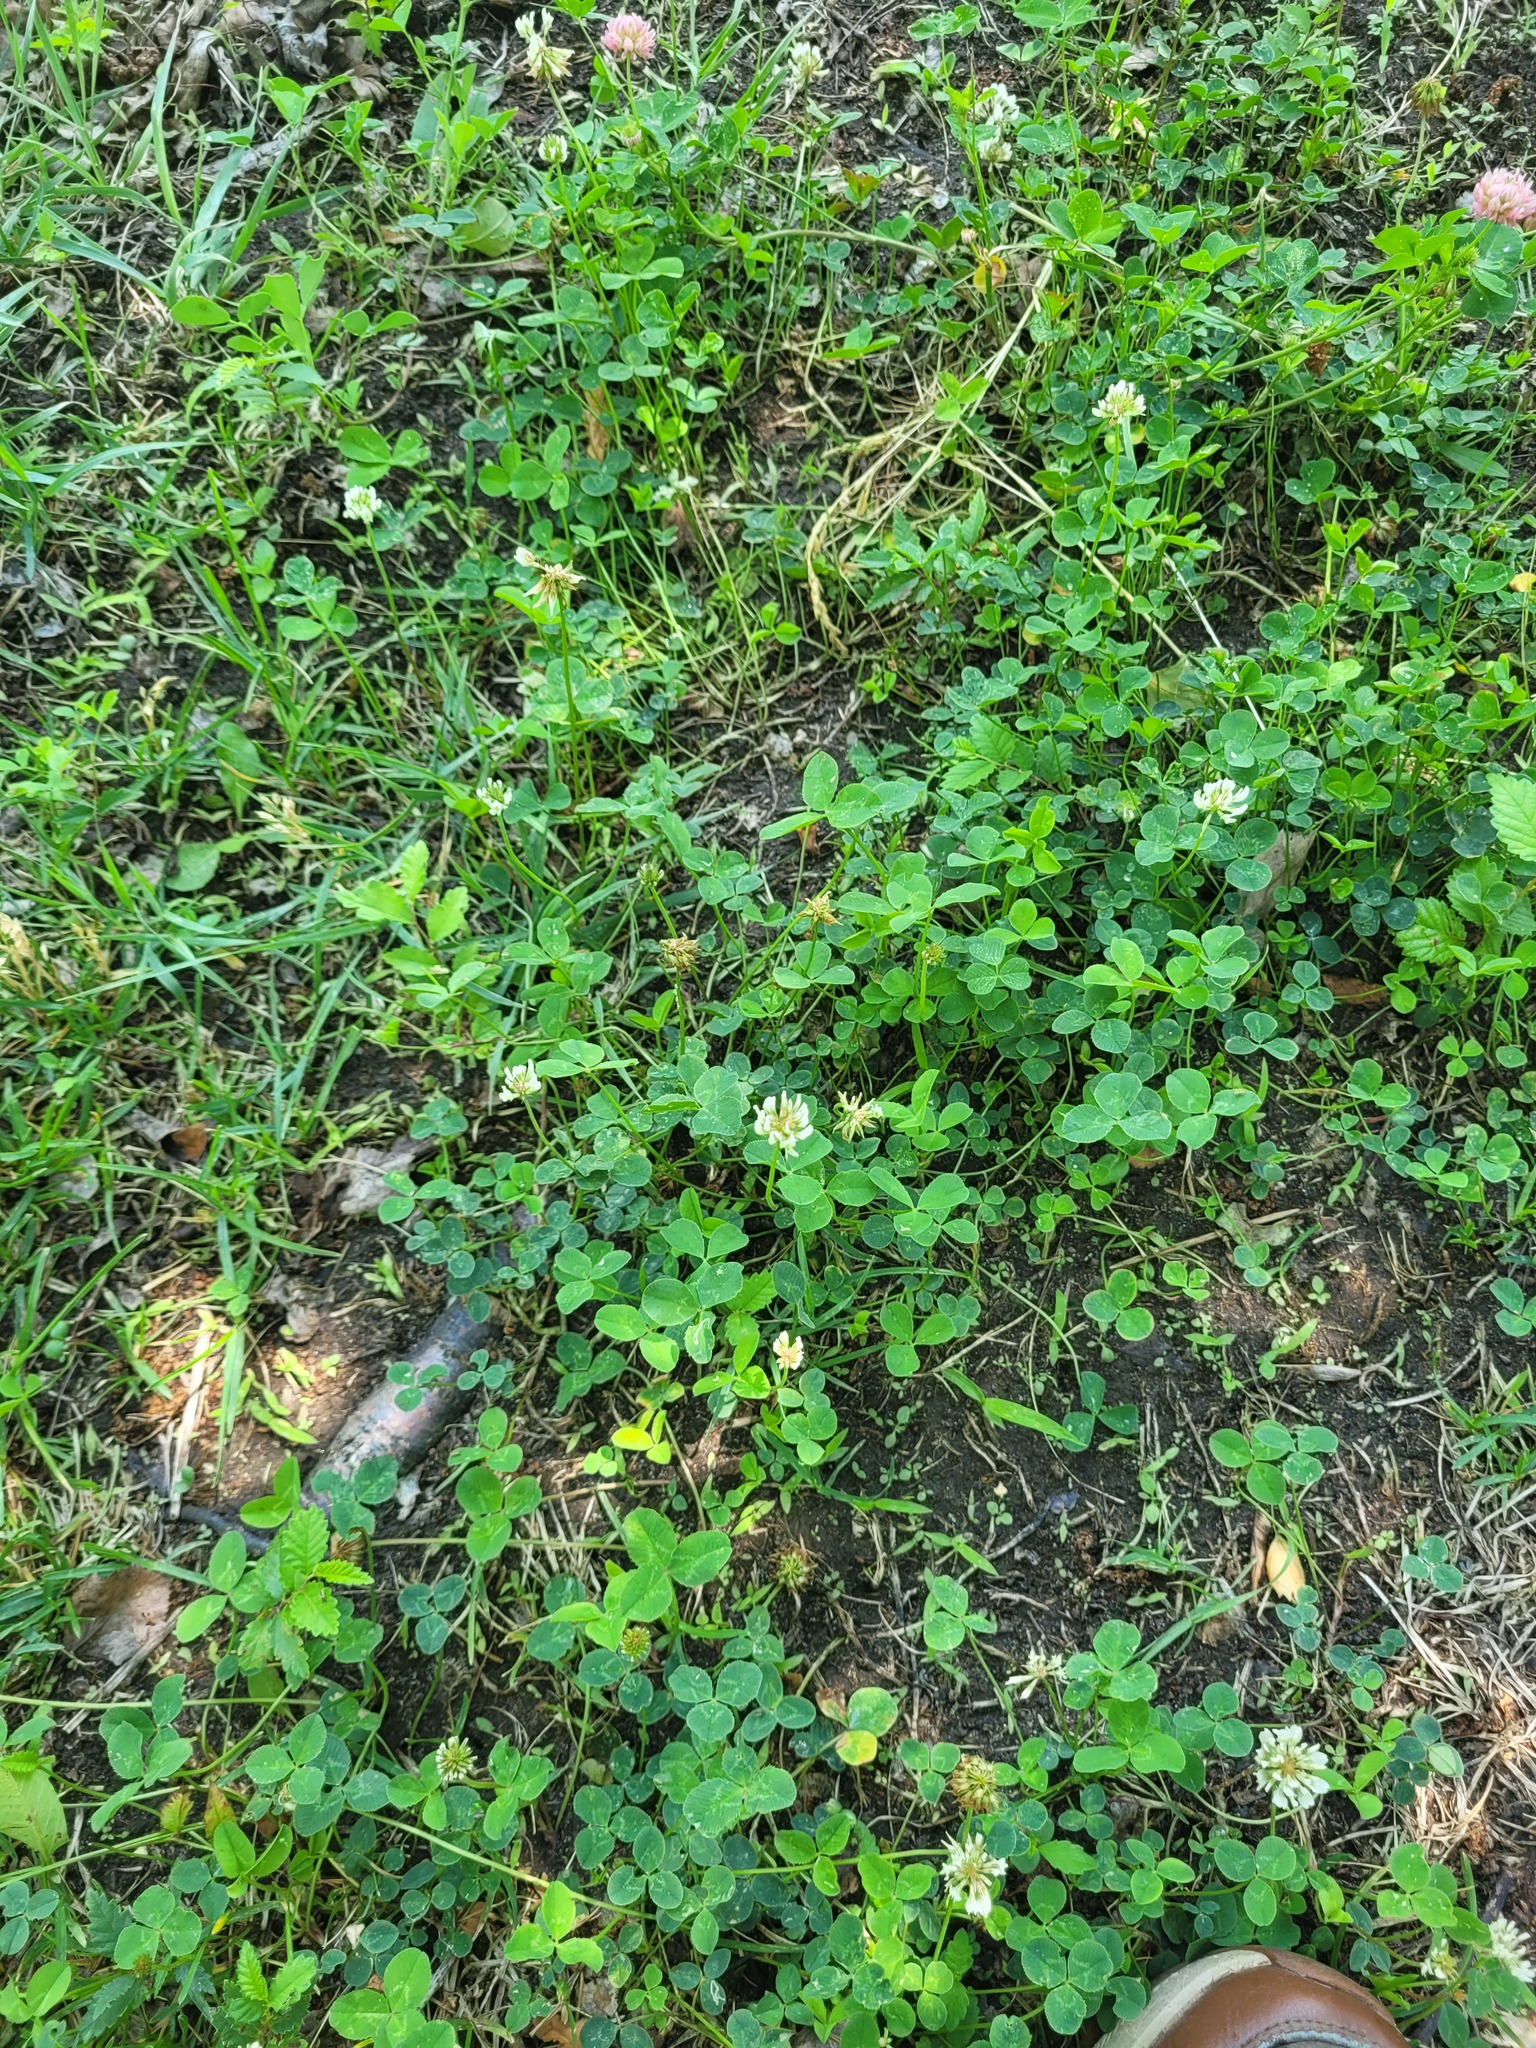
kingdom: Plantae
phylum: Tracheophyta
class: Magnoliopsida
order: Fabales
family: Fabaceae
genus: Trifolium
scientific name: Trifolium repens
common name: White clover
